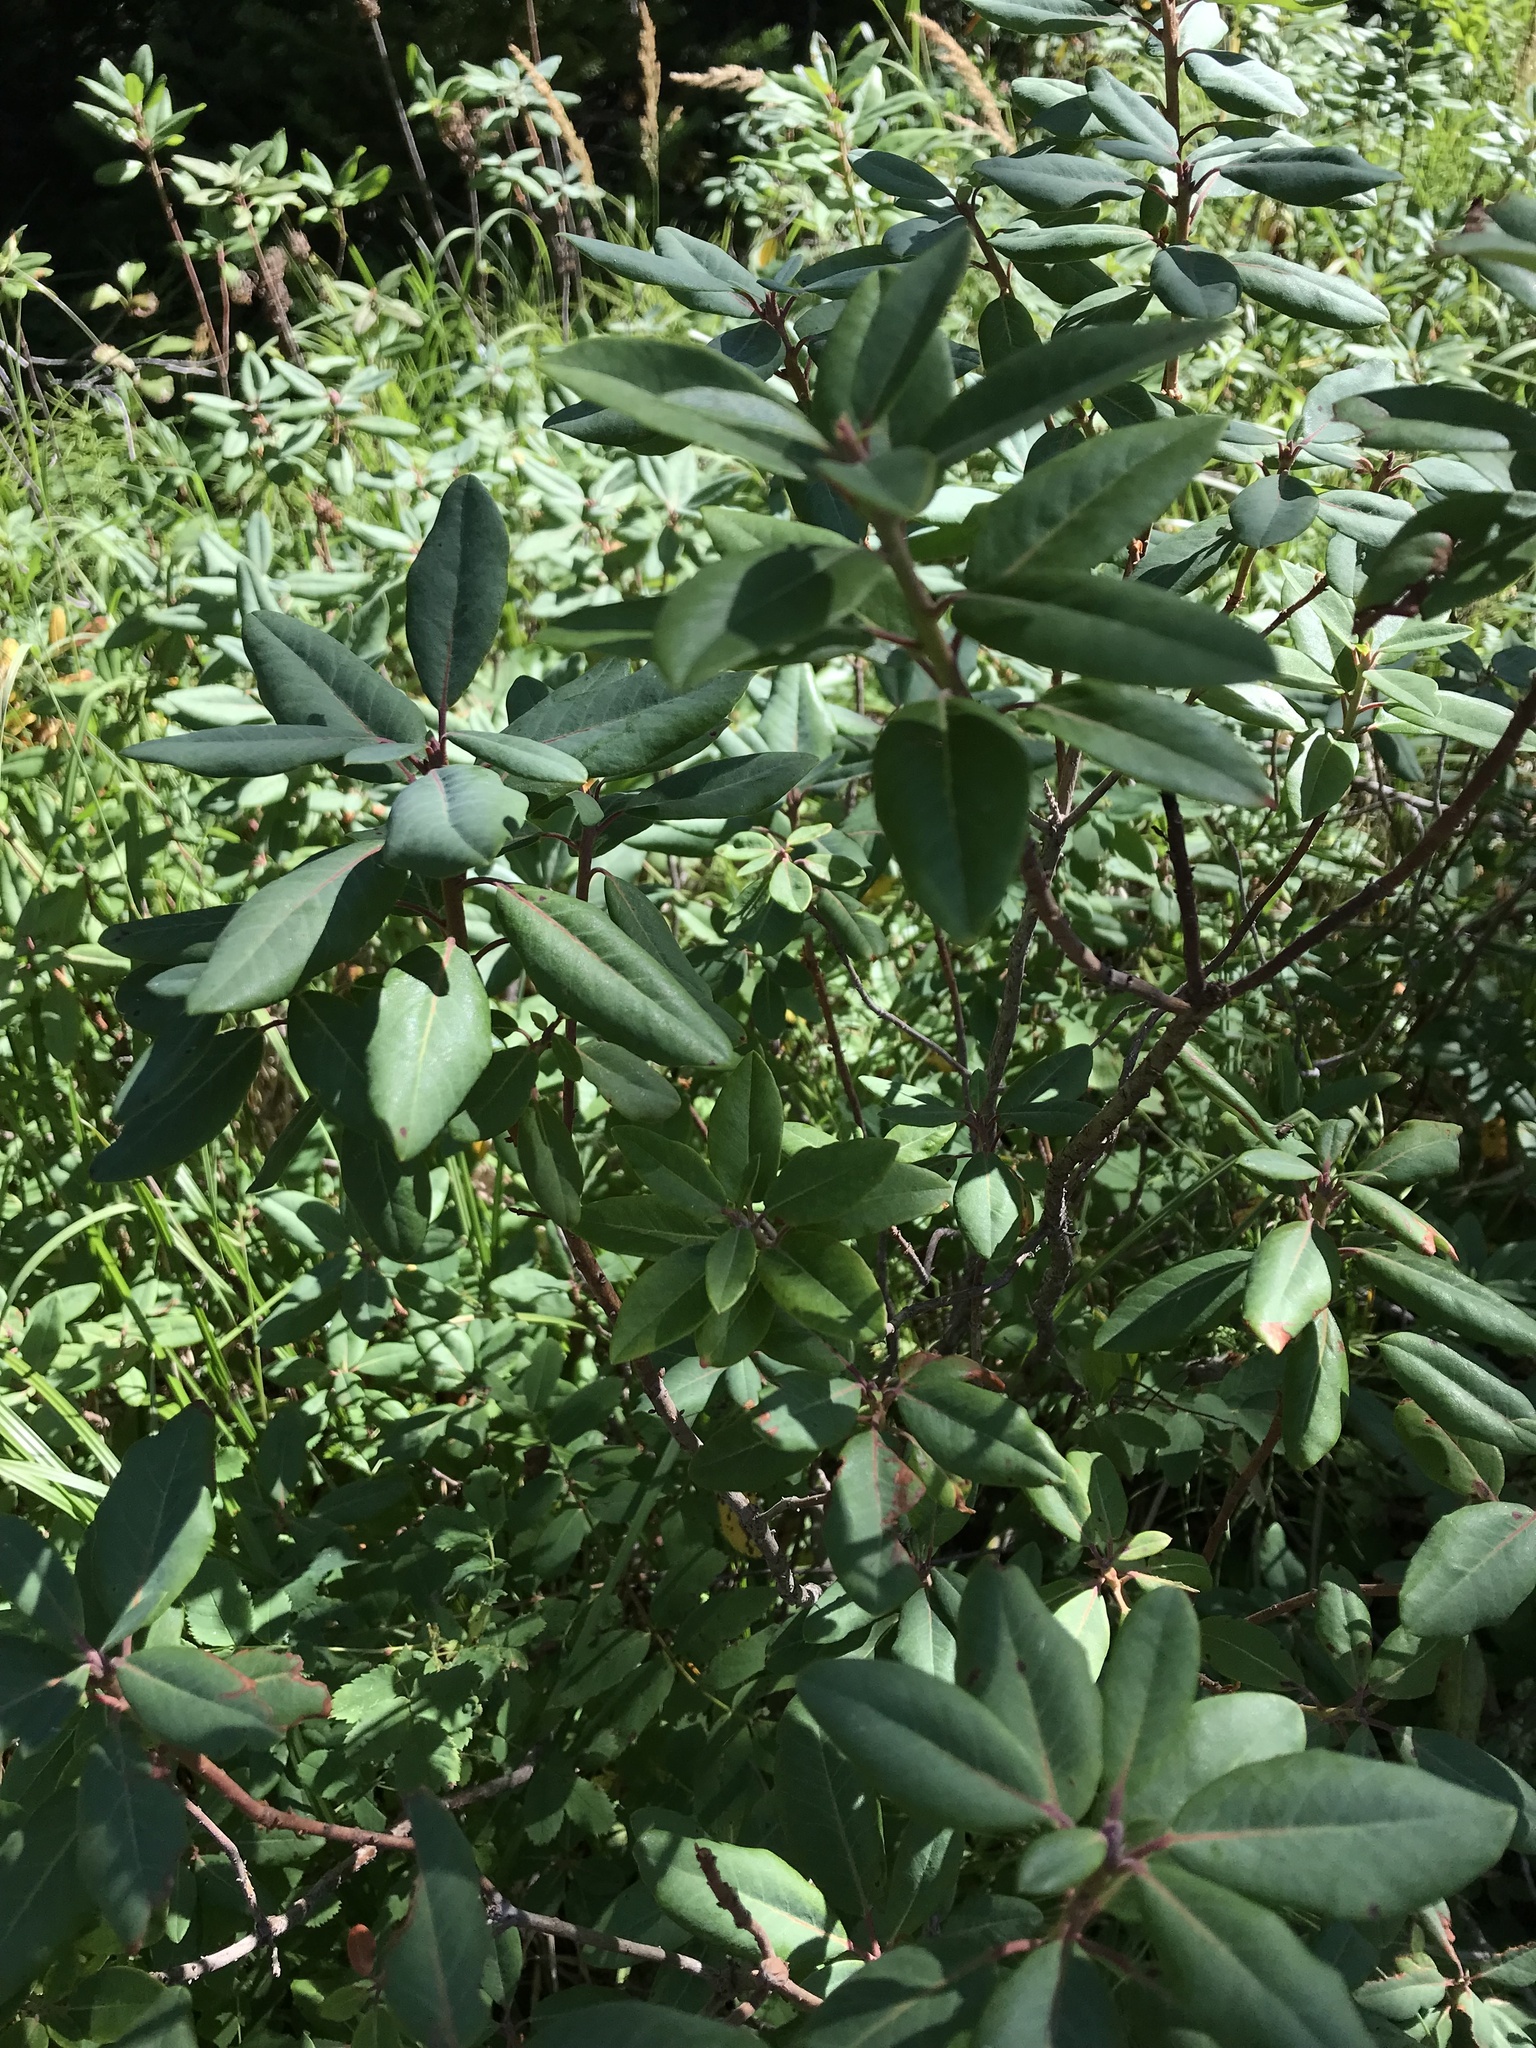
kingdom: Plantae
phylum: Tracheophyta
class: Magnoliopsida
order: Ericales
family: Ericaceae
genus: Rhododendron
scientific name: Rhododendron columbianum
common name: Western labrador tea
